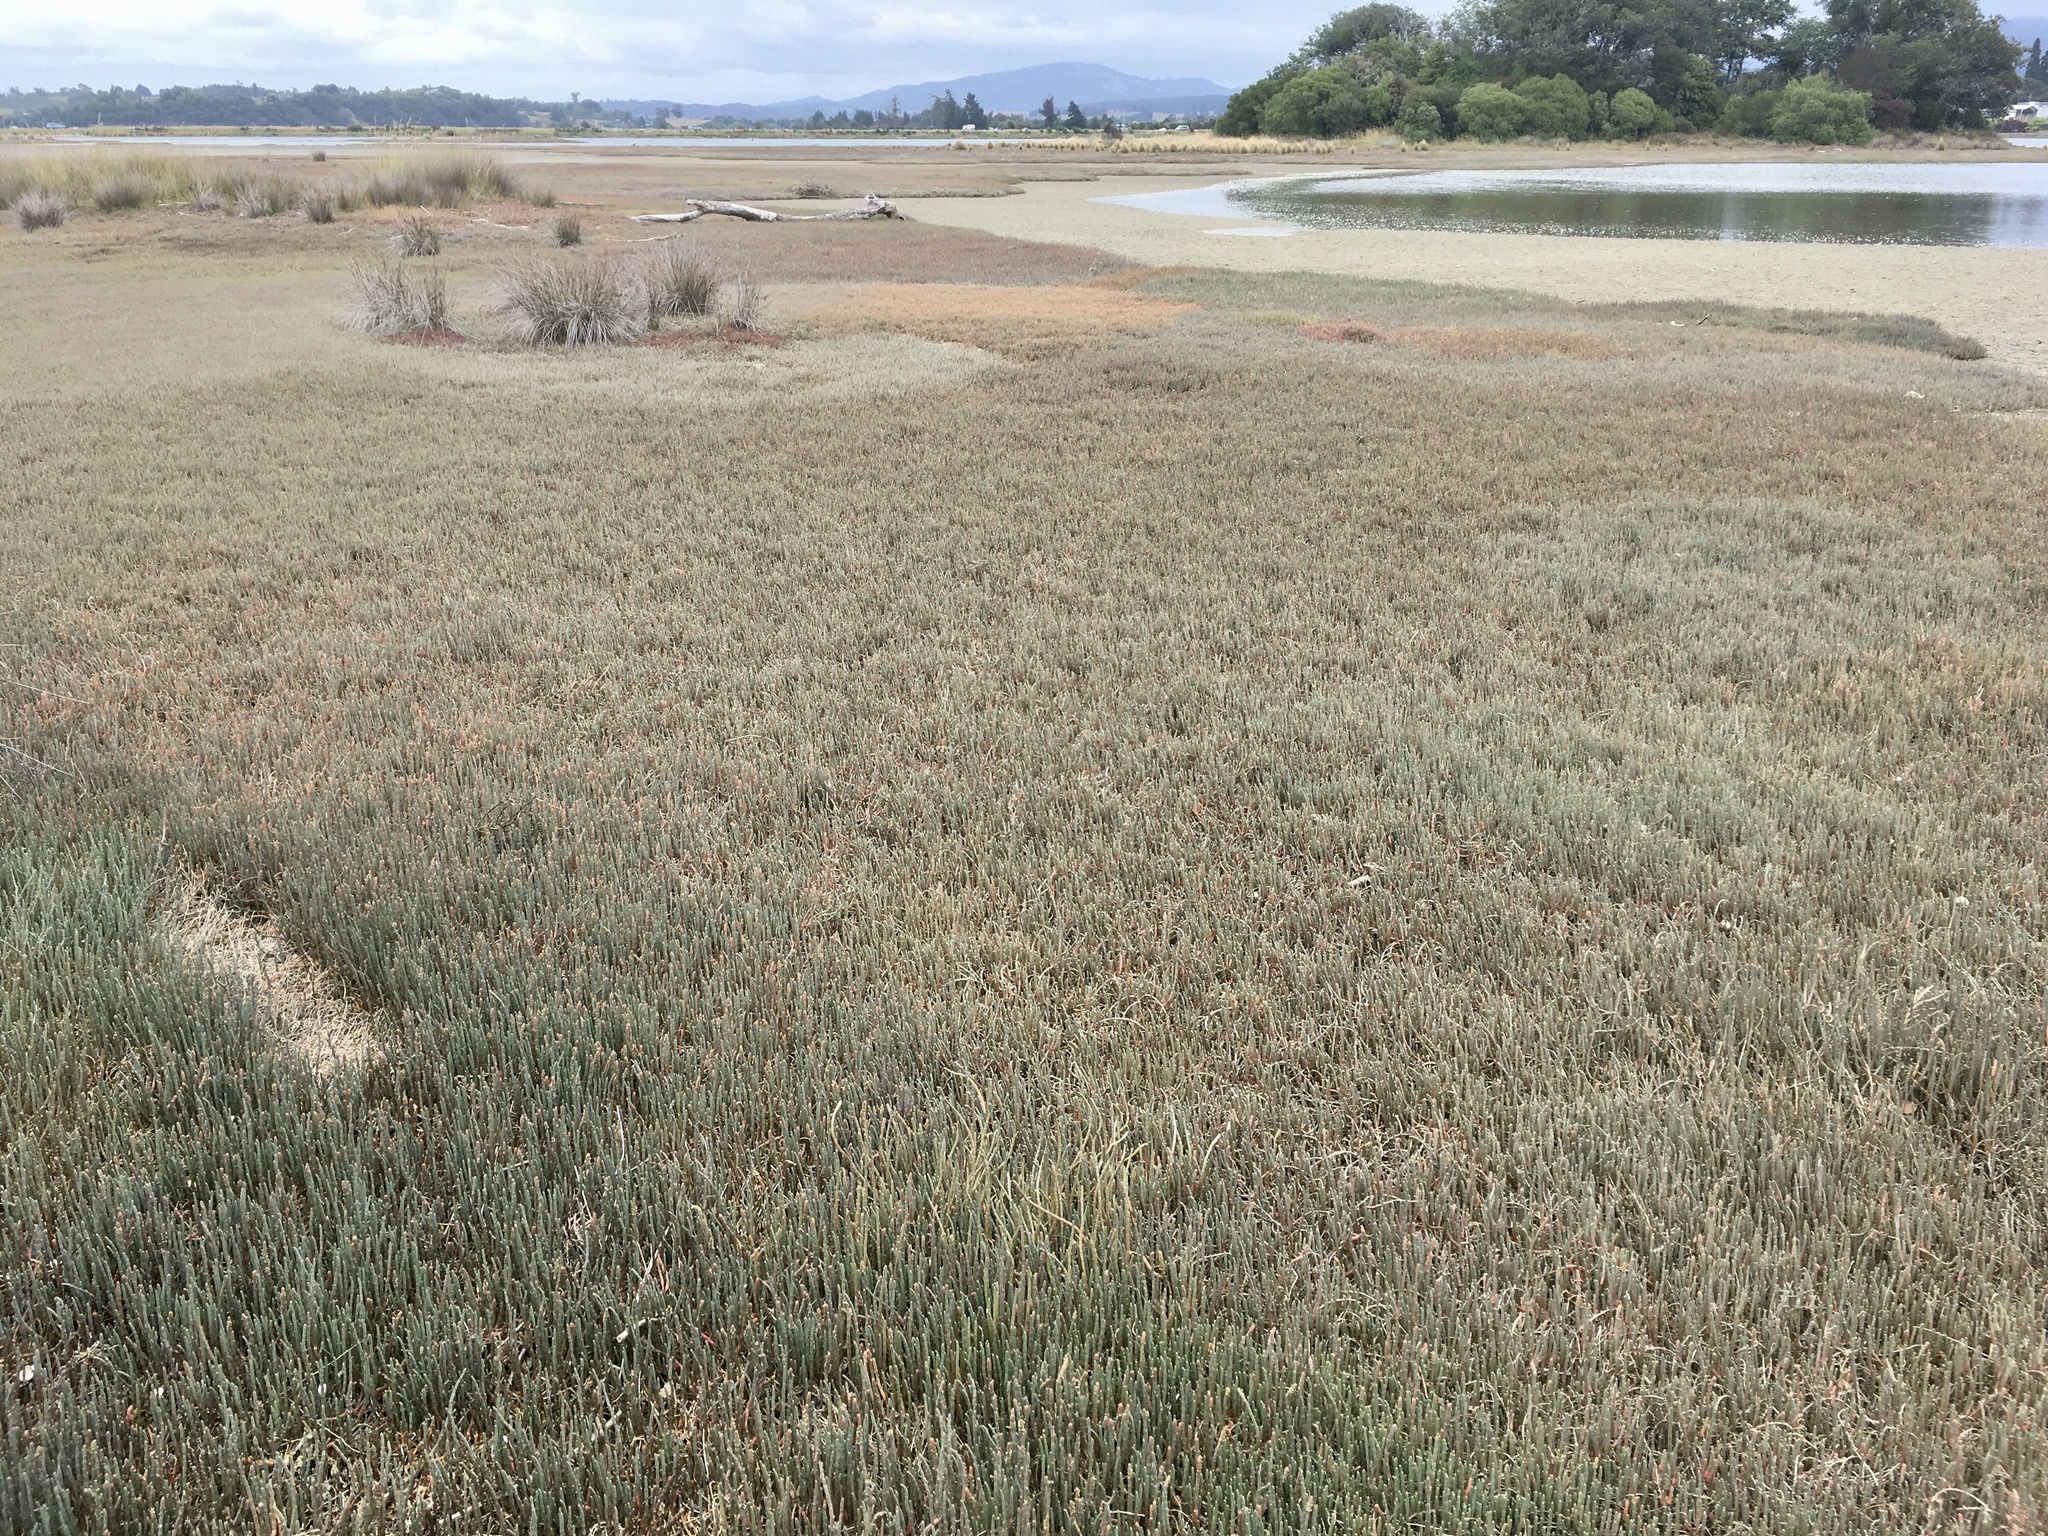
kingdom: Plantae
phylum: Tracheophyta
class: Magnoliopsida
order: Caryophyllales
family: Amaranthaceae
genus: Salicornia
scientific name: Salicornia quinqueflora
